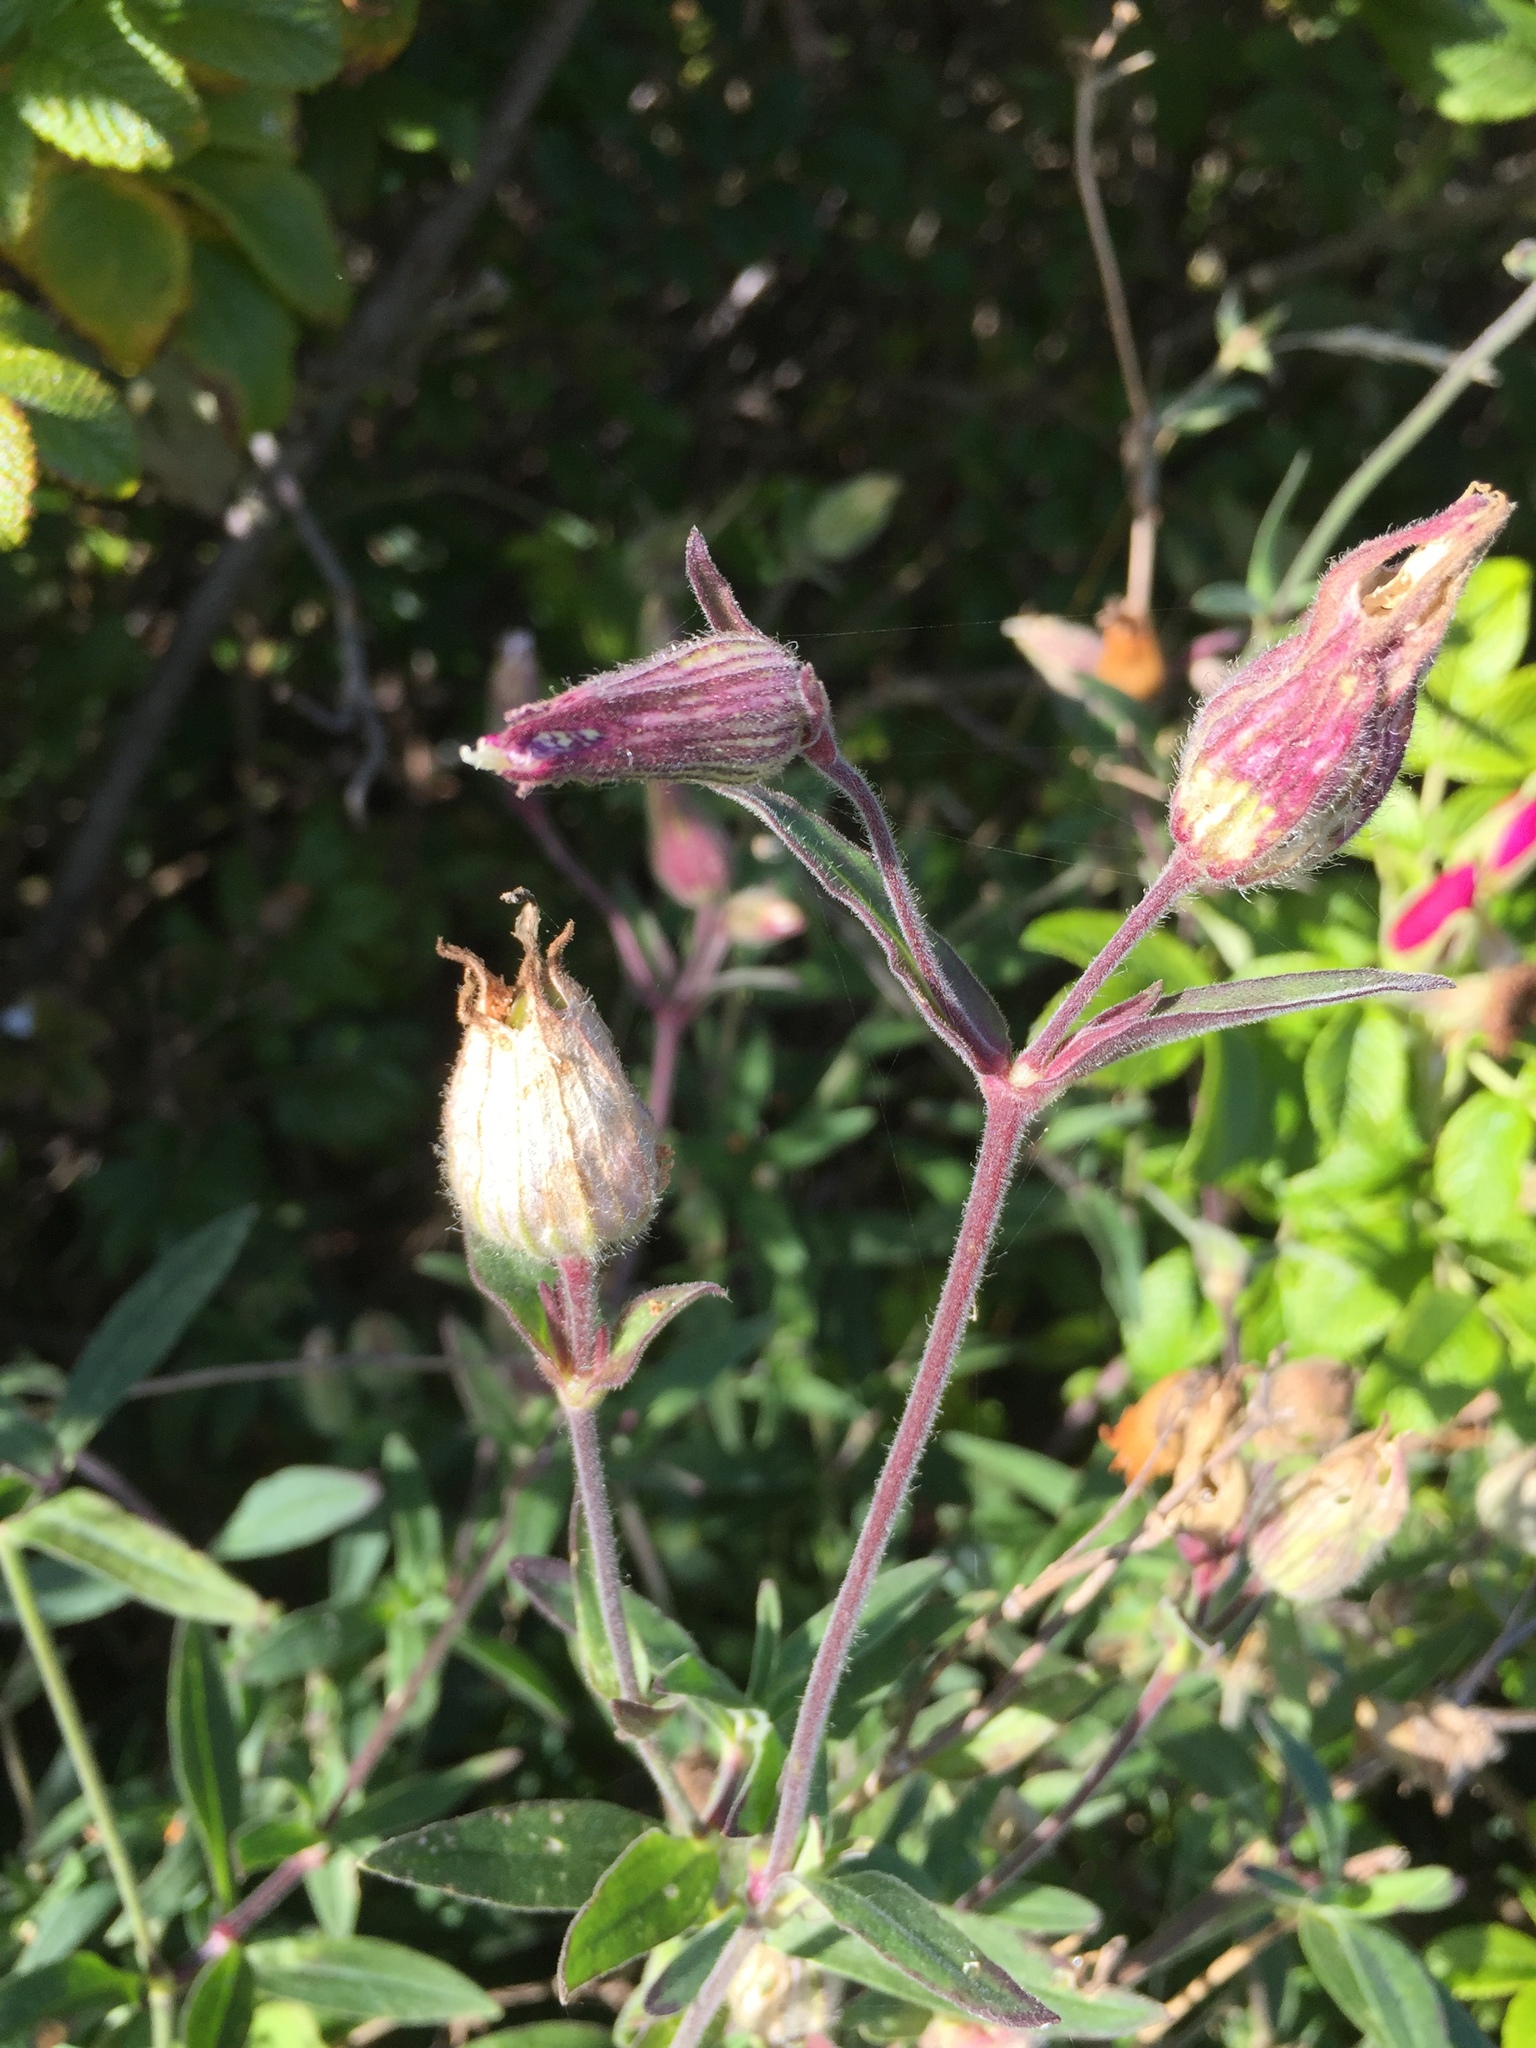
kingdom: Plantae
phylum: Tracheophyta
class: Magnoliopsida
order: Caryophyllales
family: Caryophyllaceae
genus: Silene
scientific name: Silene dioica
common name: Red campion
